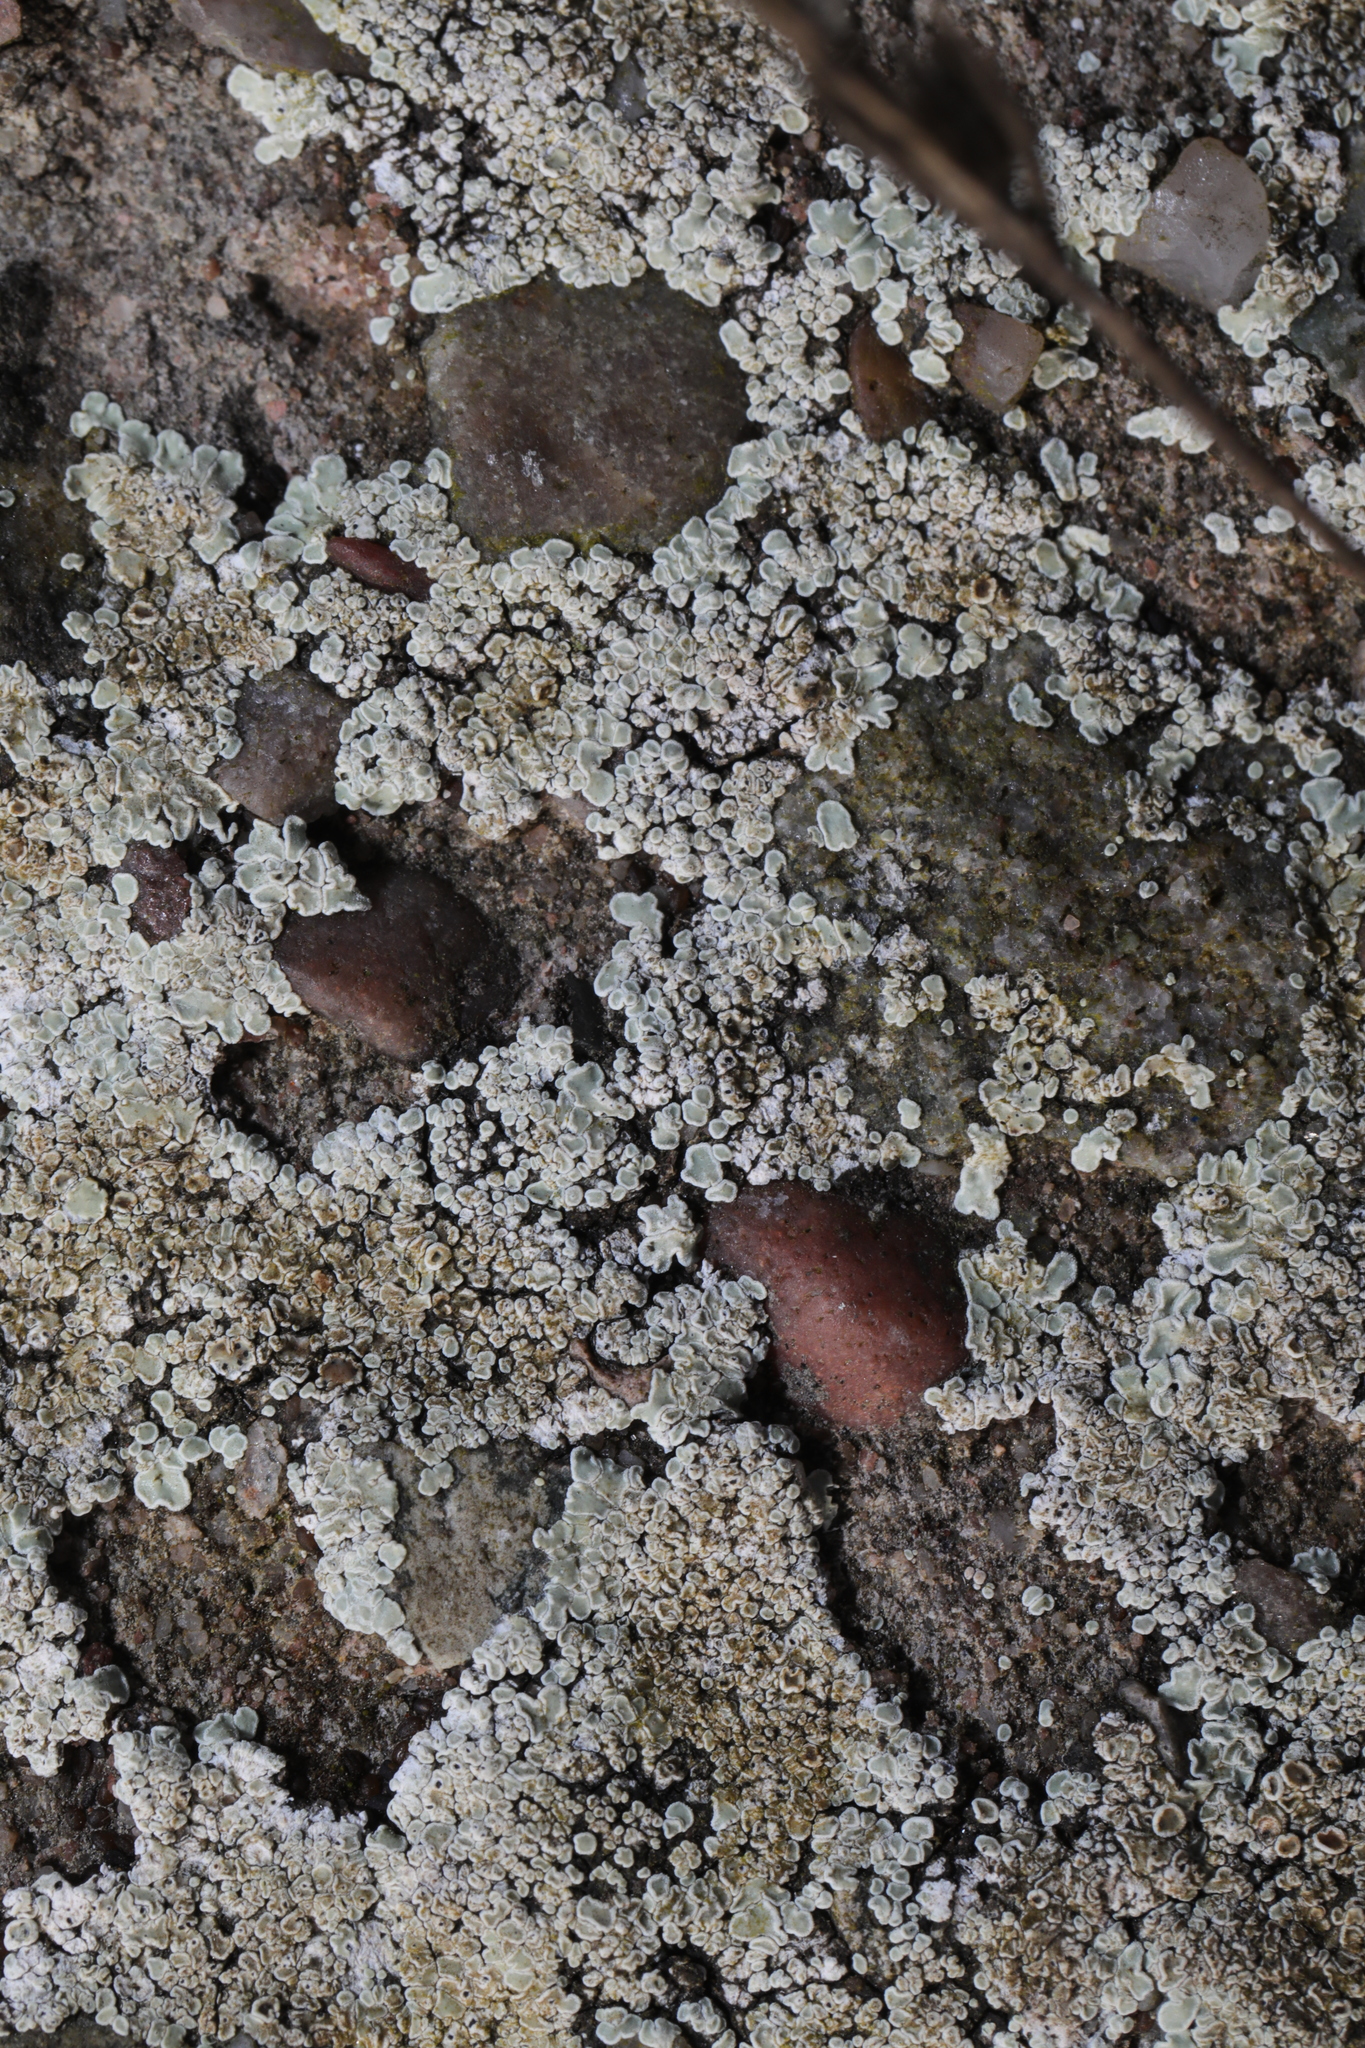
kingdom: Fungi
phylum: Ascomycota
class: Lecanoromycetes
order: Lecanorales
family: Lecanoraceae
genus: Protoparmeliopsis
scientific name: Protoparmeliopsis muralis
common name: Stonewall rim lichen
